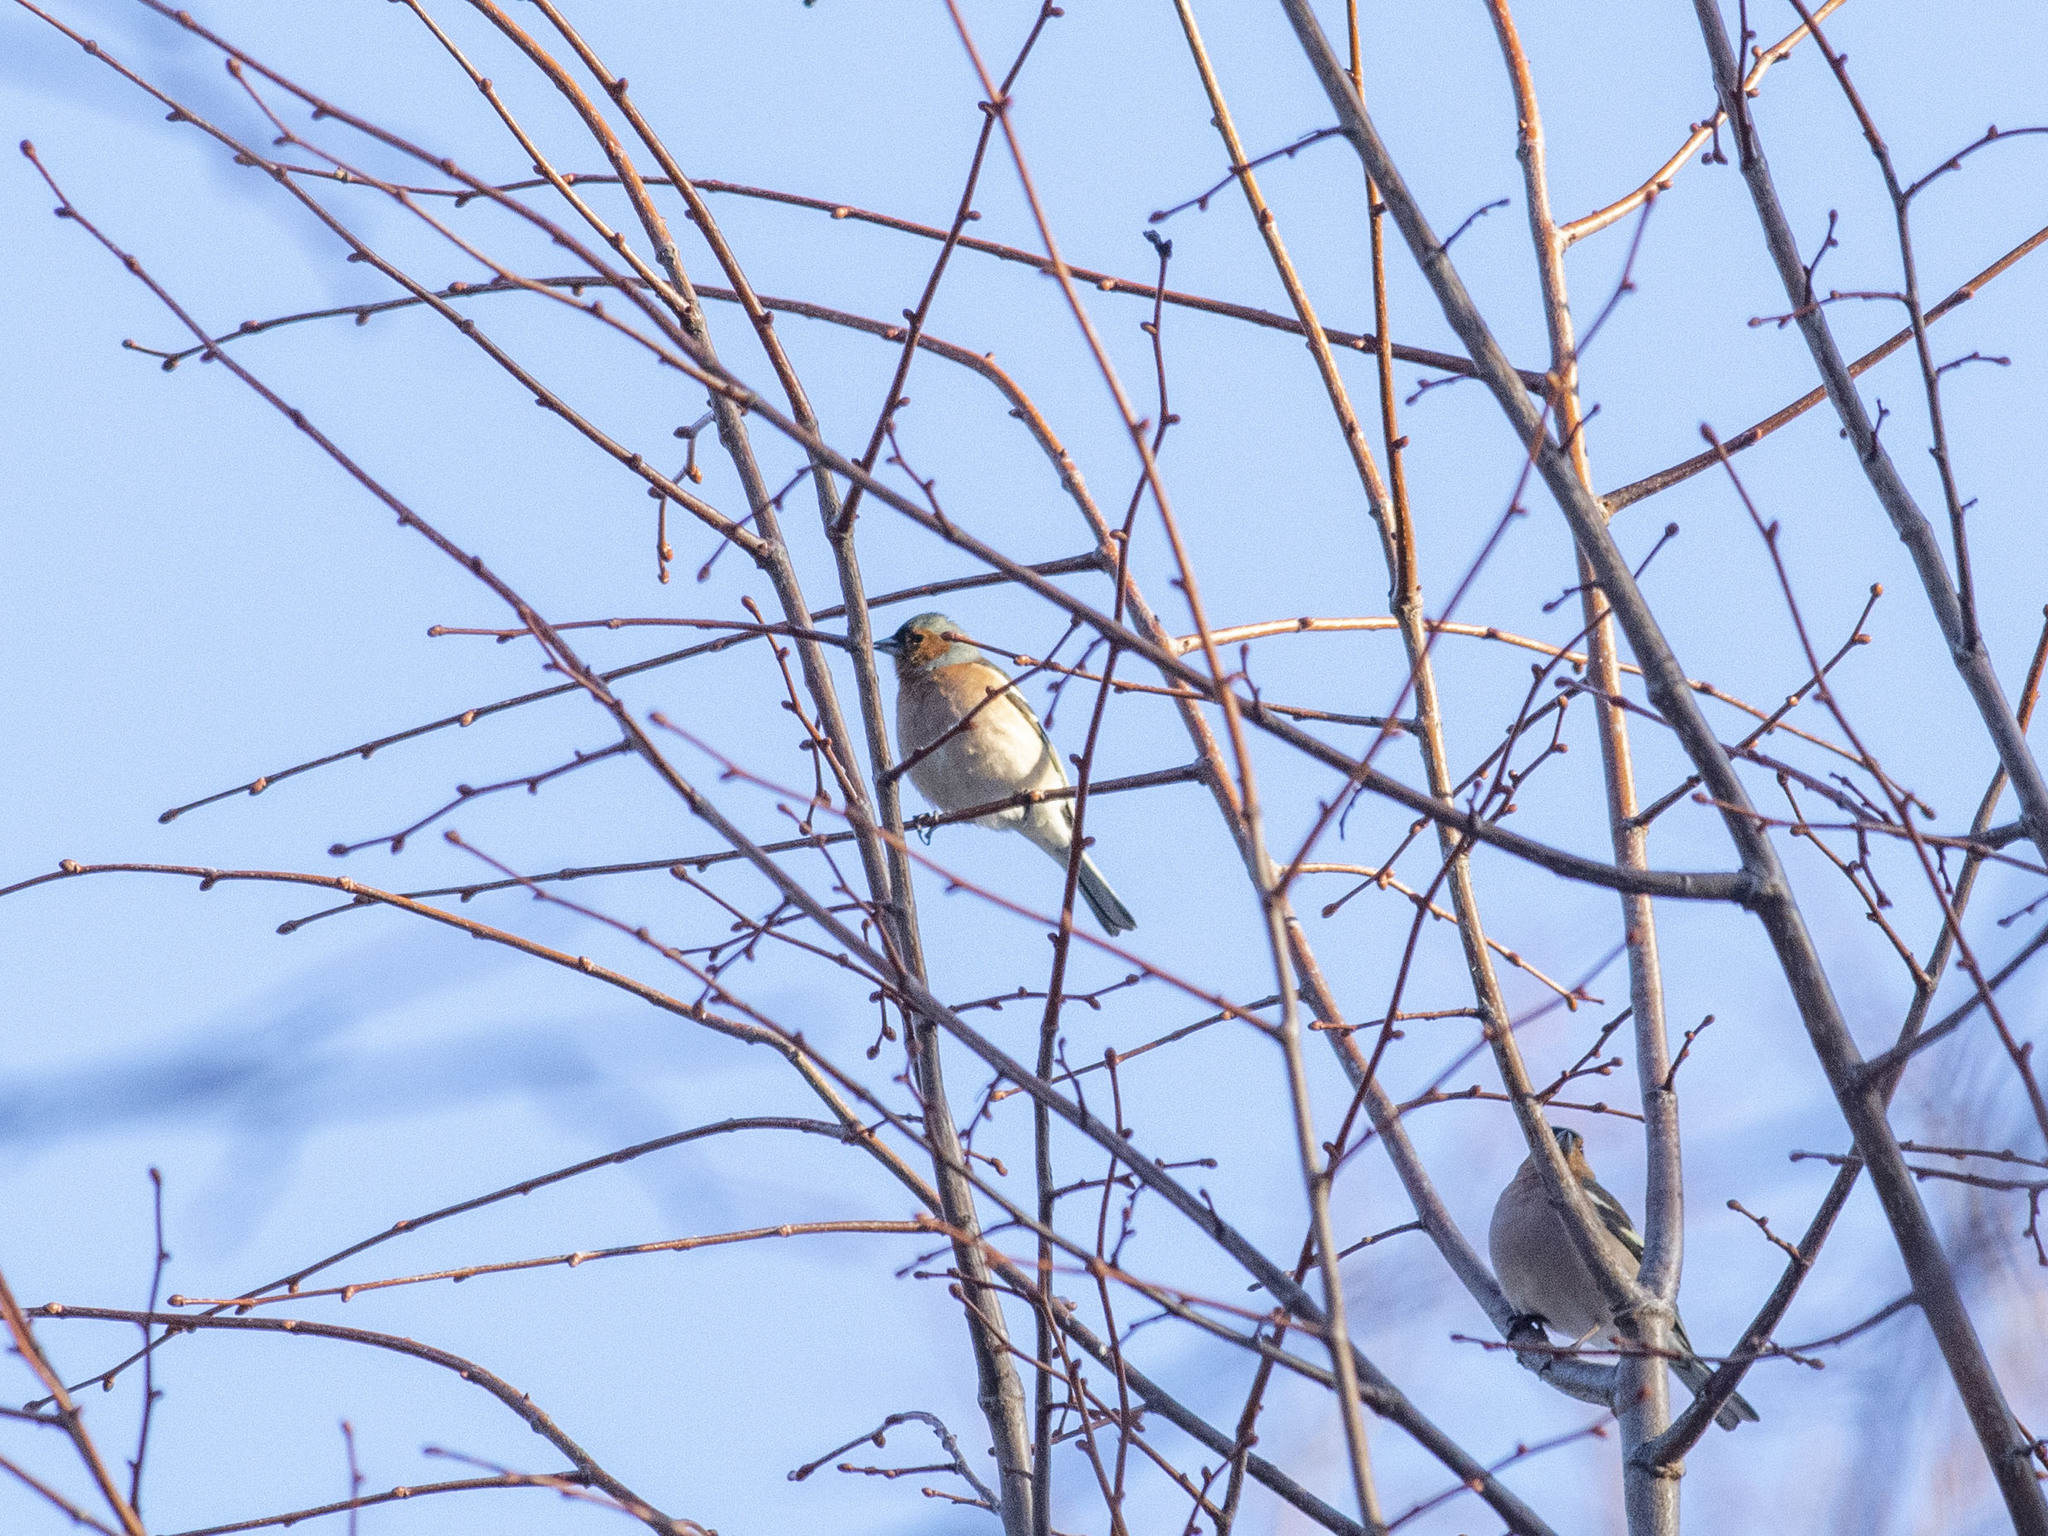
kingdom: Animalia
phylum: Chordata
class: Aves
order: Passeriformes
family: Fringillidae
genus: Fringilla
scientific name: Fringilla coelebs
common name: Common chaffinch
